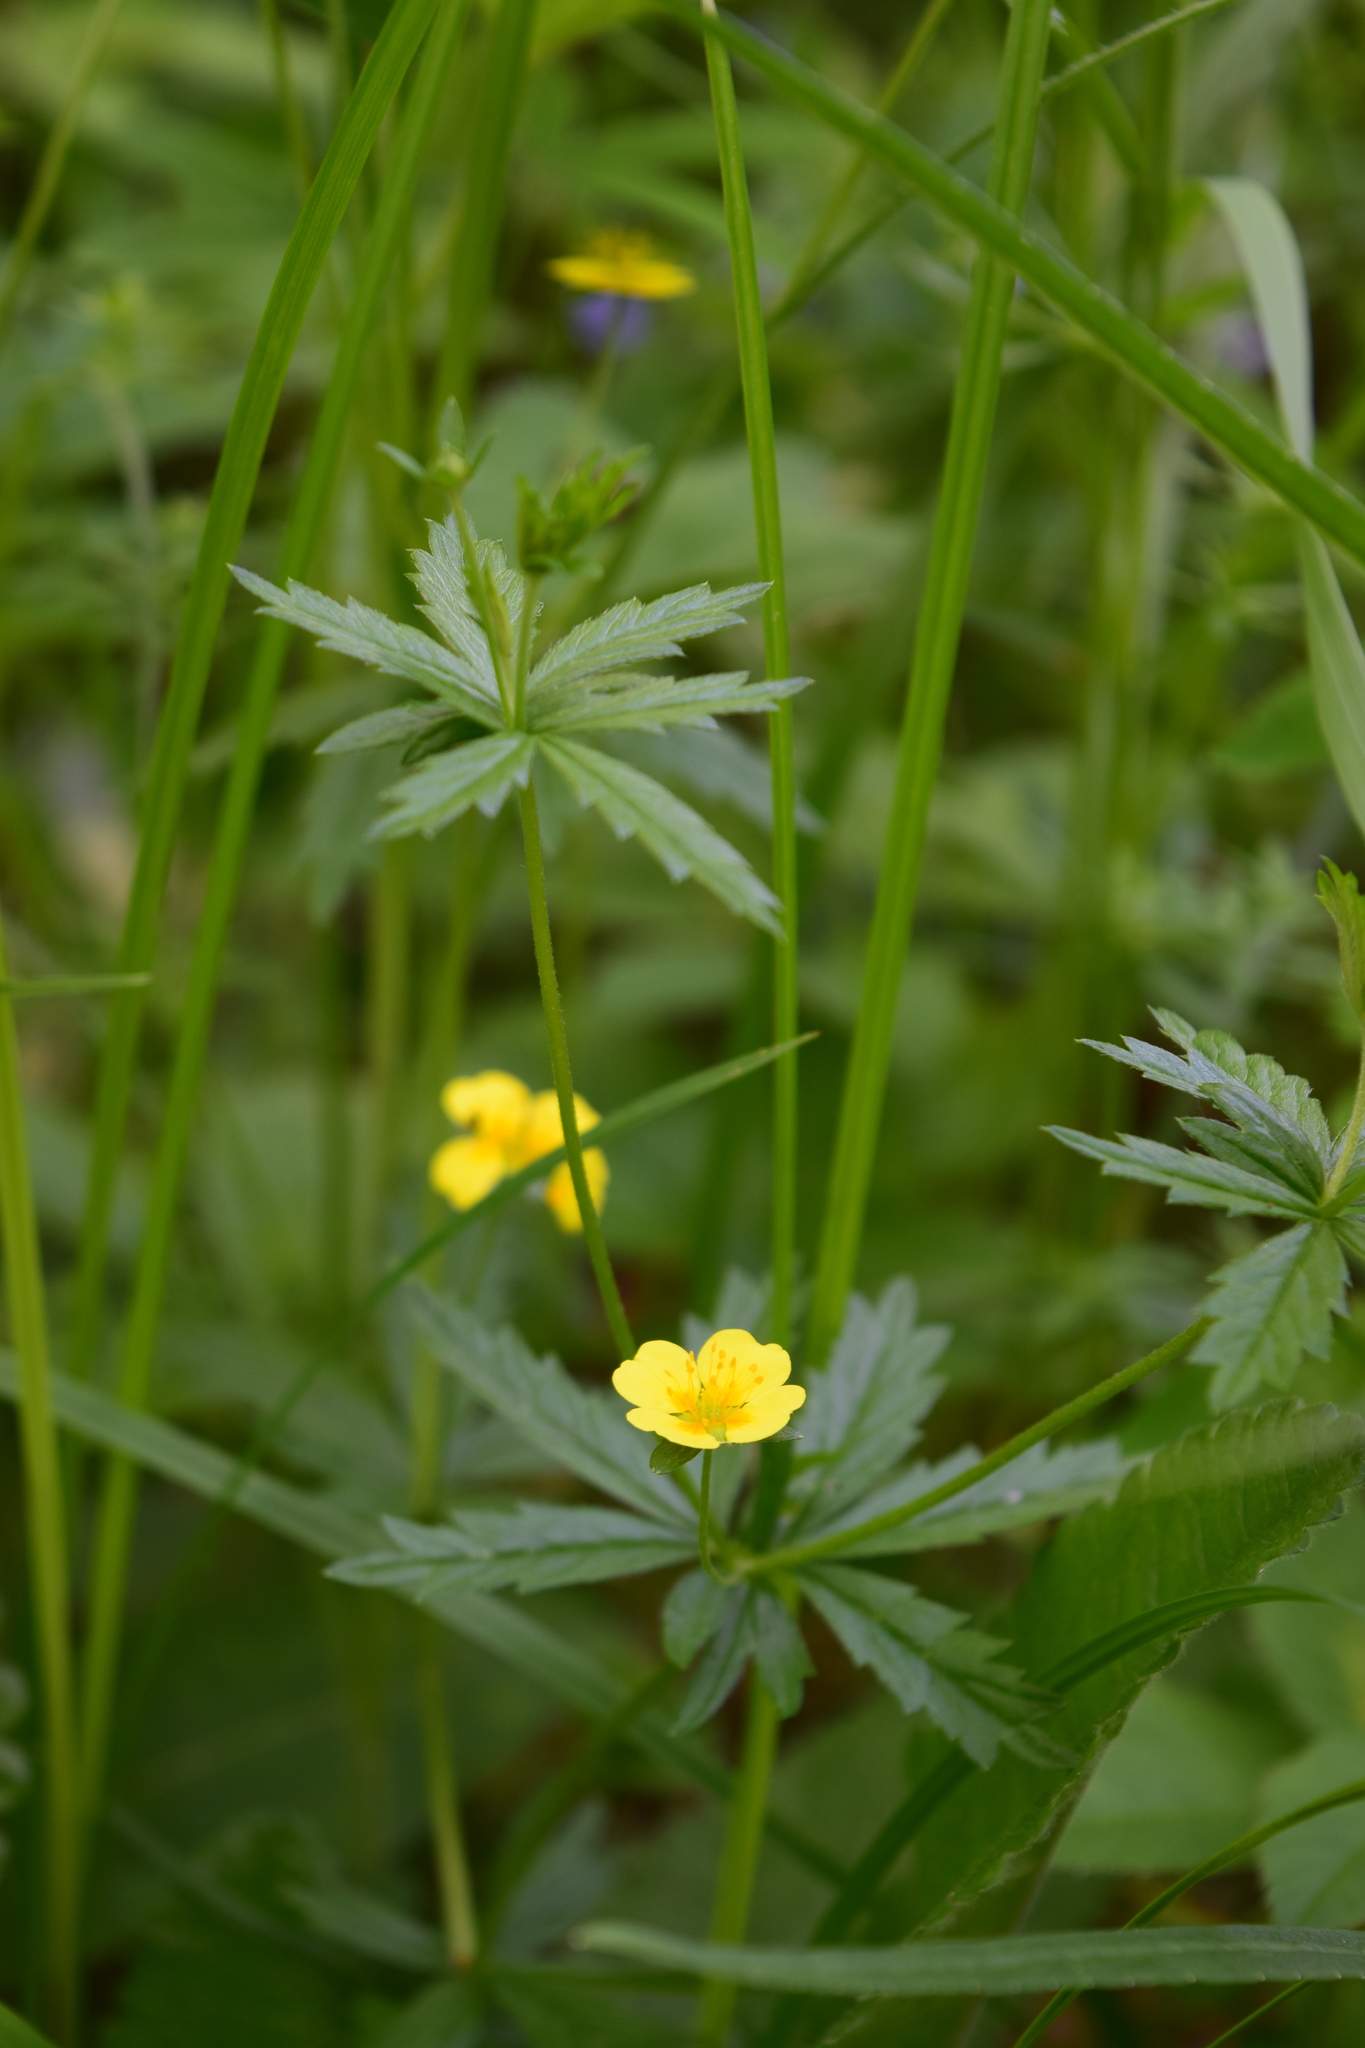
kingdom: Plantae
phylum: Tracheophyta
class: Magnoliopsida
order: Rosales
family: Rosaceae
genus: Potentilla
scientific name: Potentilla erecta
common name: Tormentil
